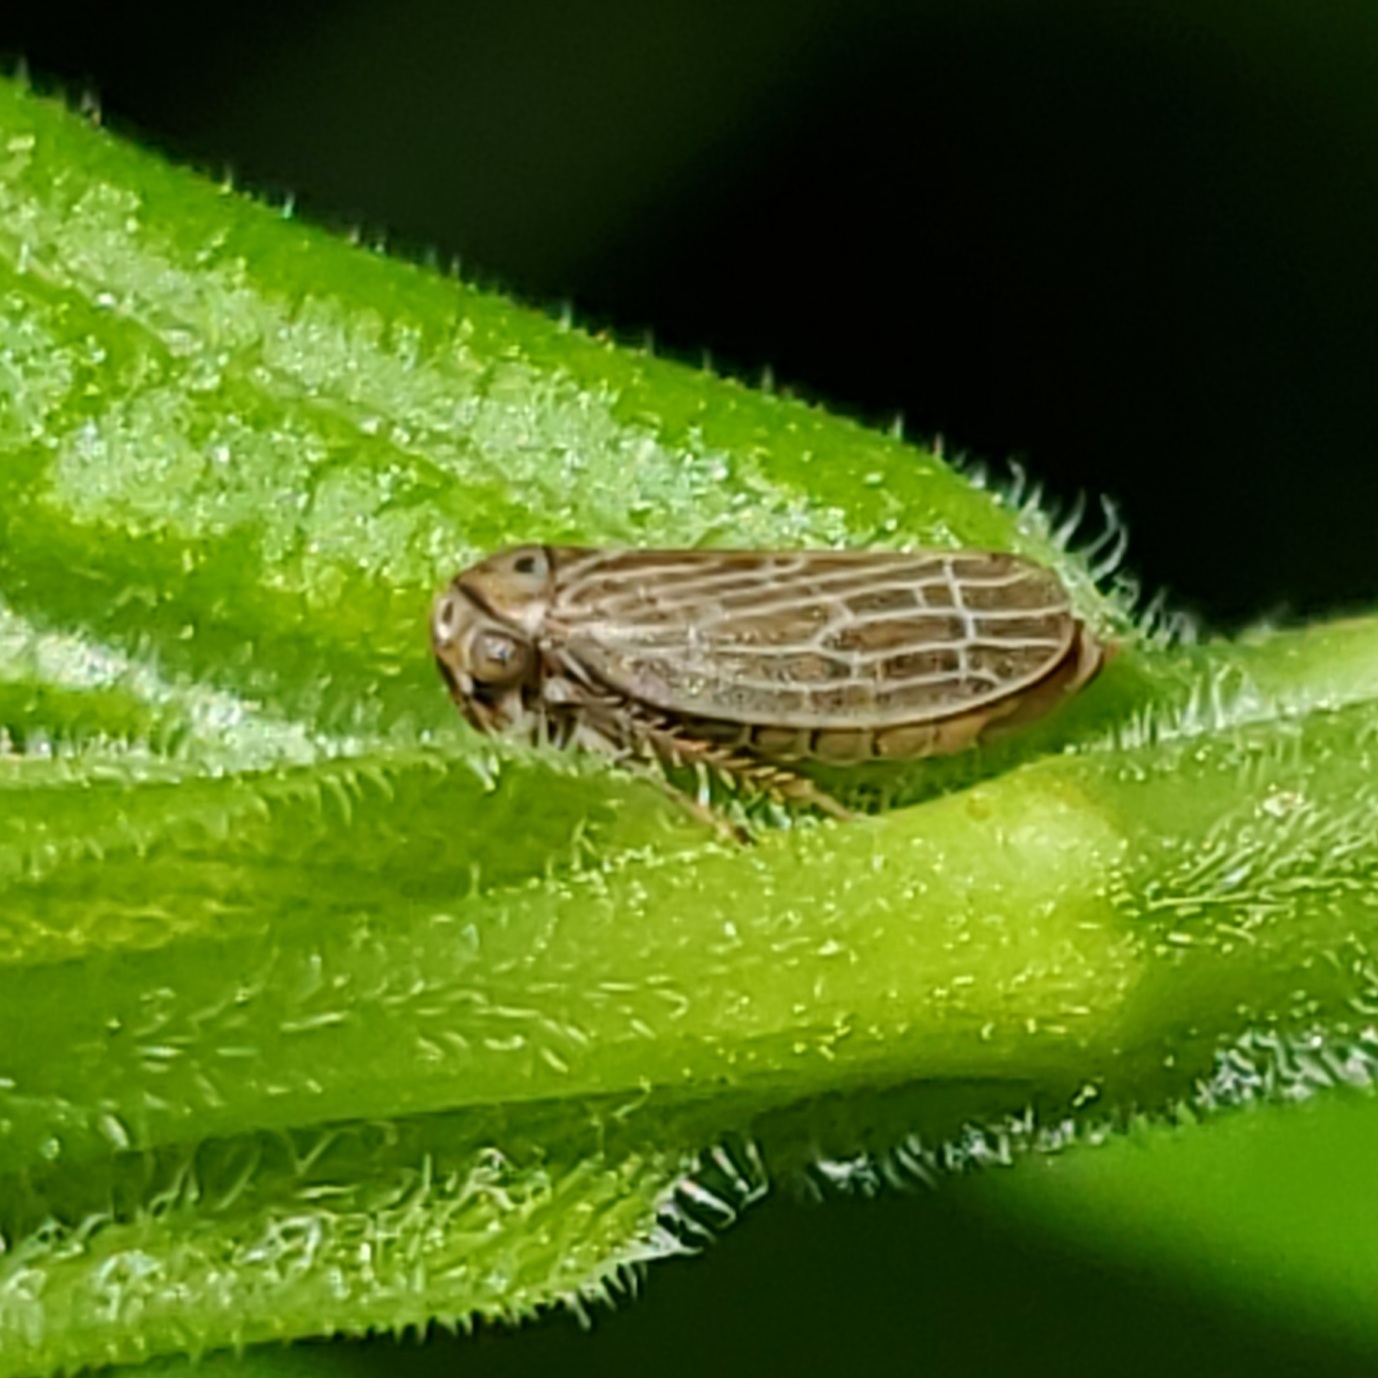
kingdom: Animalia
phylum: Arthropoda
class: Insecta
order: Hemiptera
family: Cicadellidae
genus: Agalliota
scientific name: Agalliota quadripunctata
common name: The four-spotted clover leafhopper
